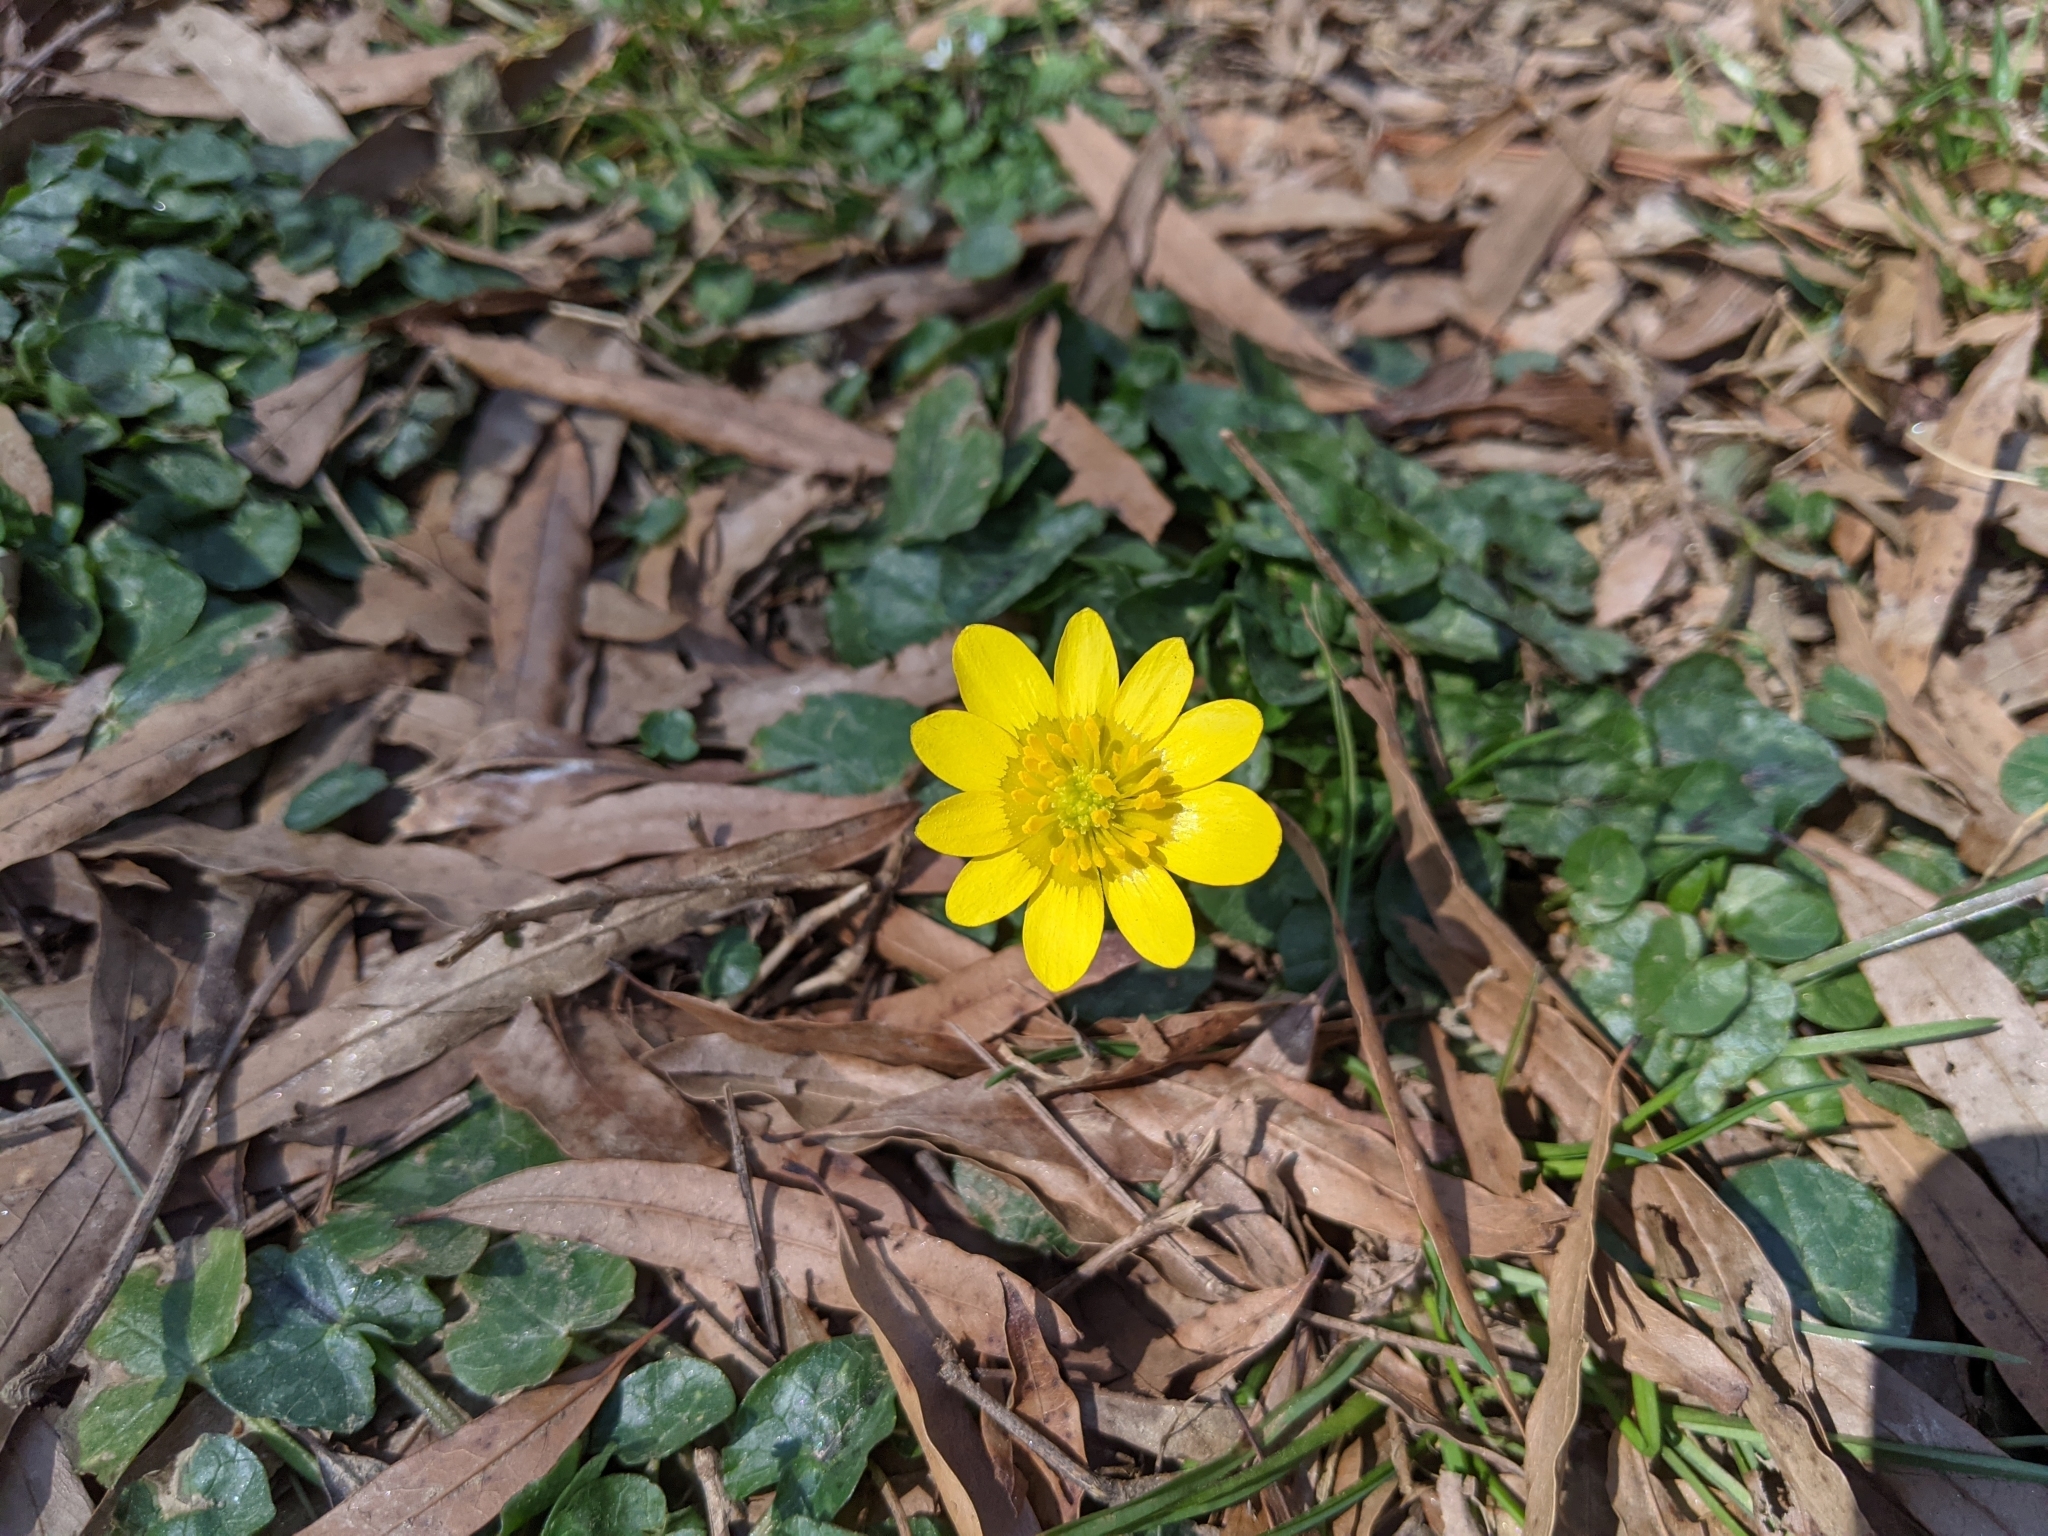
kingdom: Plantae
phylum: Tracheophyta
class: Magnoliopsida
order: Ranunculales
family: Ranunculaceae
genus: Ficaria
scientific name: Ficaria verna
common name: Lesser celandine
